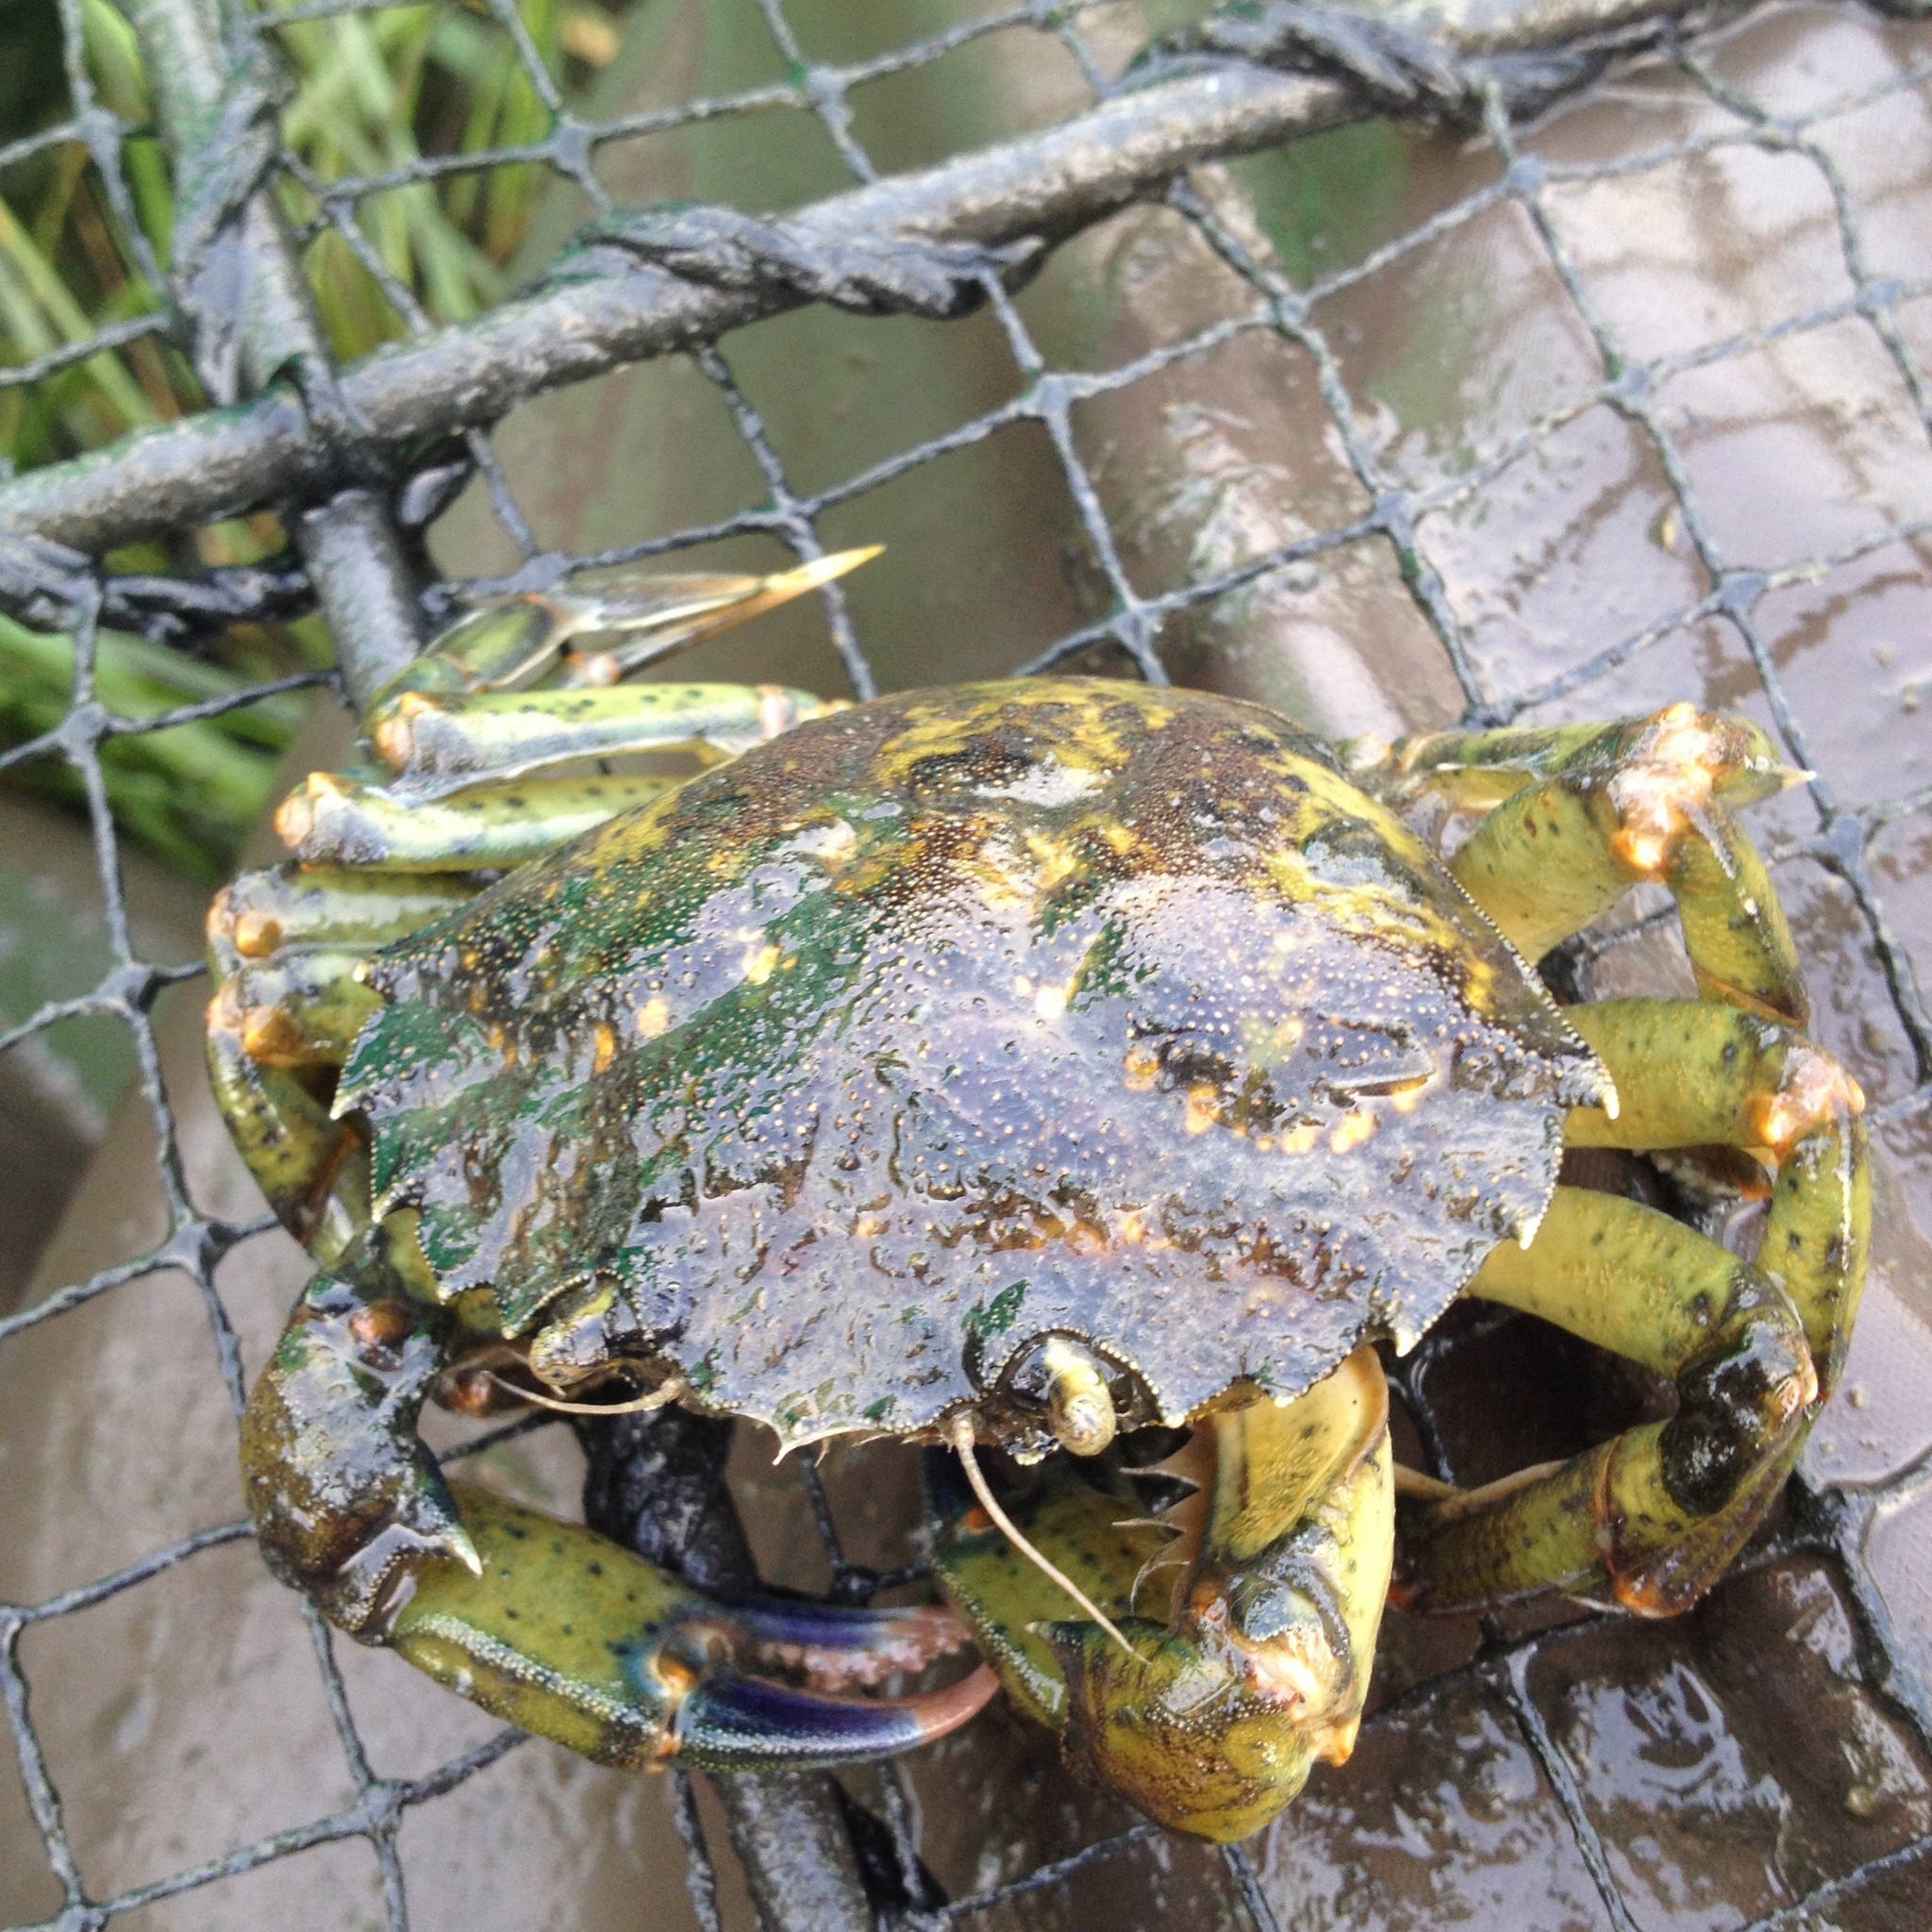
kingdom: Animalia
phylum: Arthropoda
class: Malacostraca
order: Decapoda
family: Carcinidae
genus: Carcinus
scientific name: Carcinus maenas
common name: European green crab
